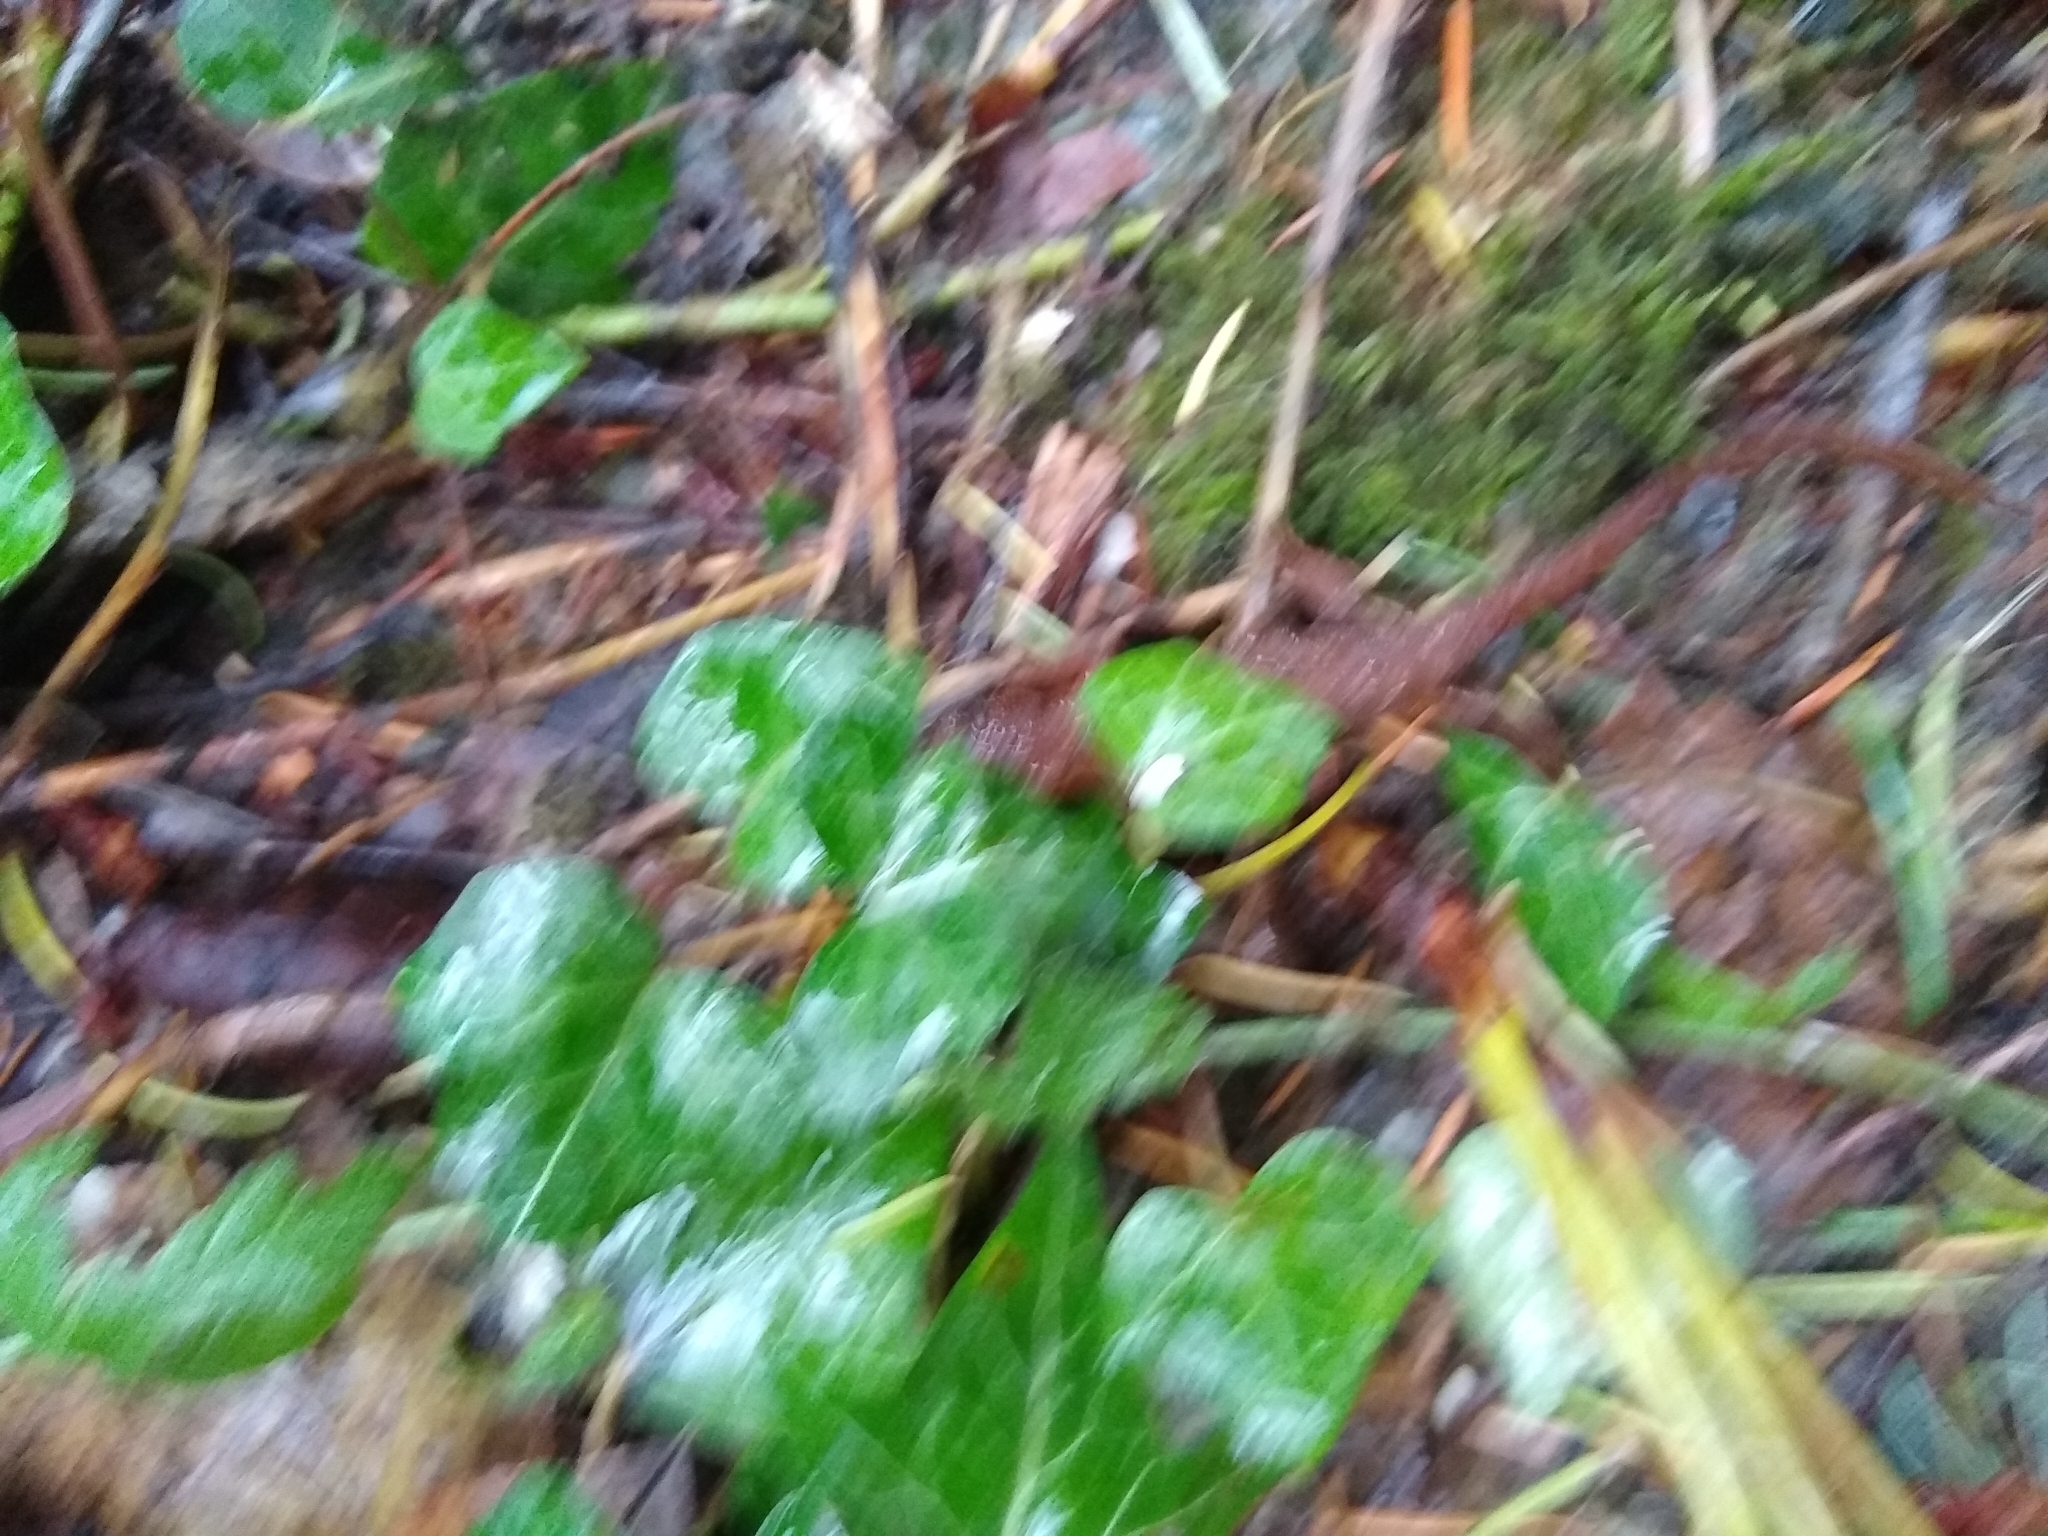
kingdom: Animalia
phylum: Chordata
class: Amphibia
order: Caudata
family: Salamandridae
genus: Taricha
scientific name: Taricha granulosa
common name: Roughskin newt
